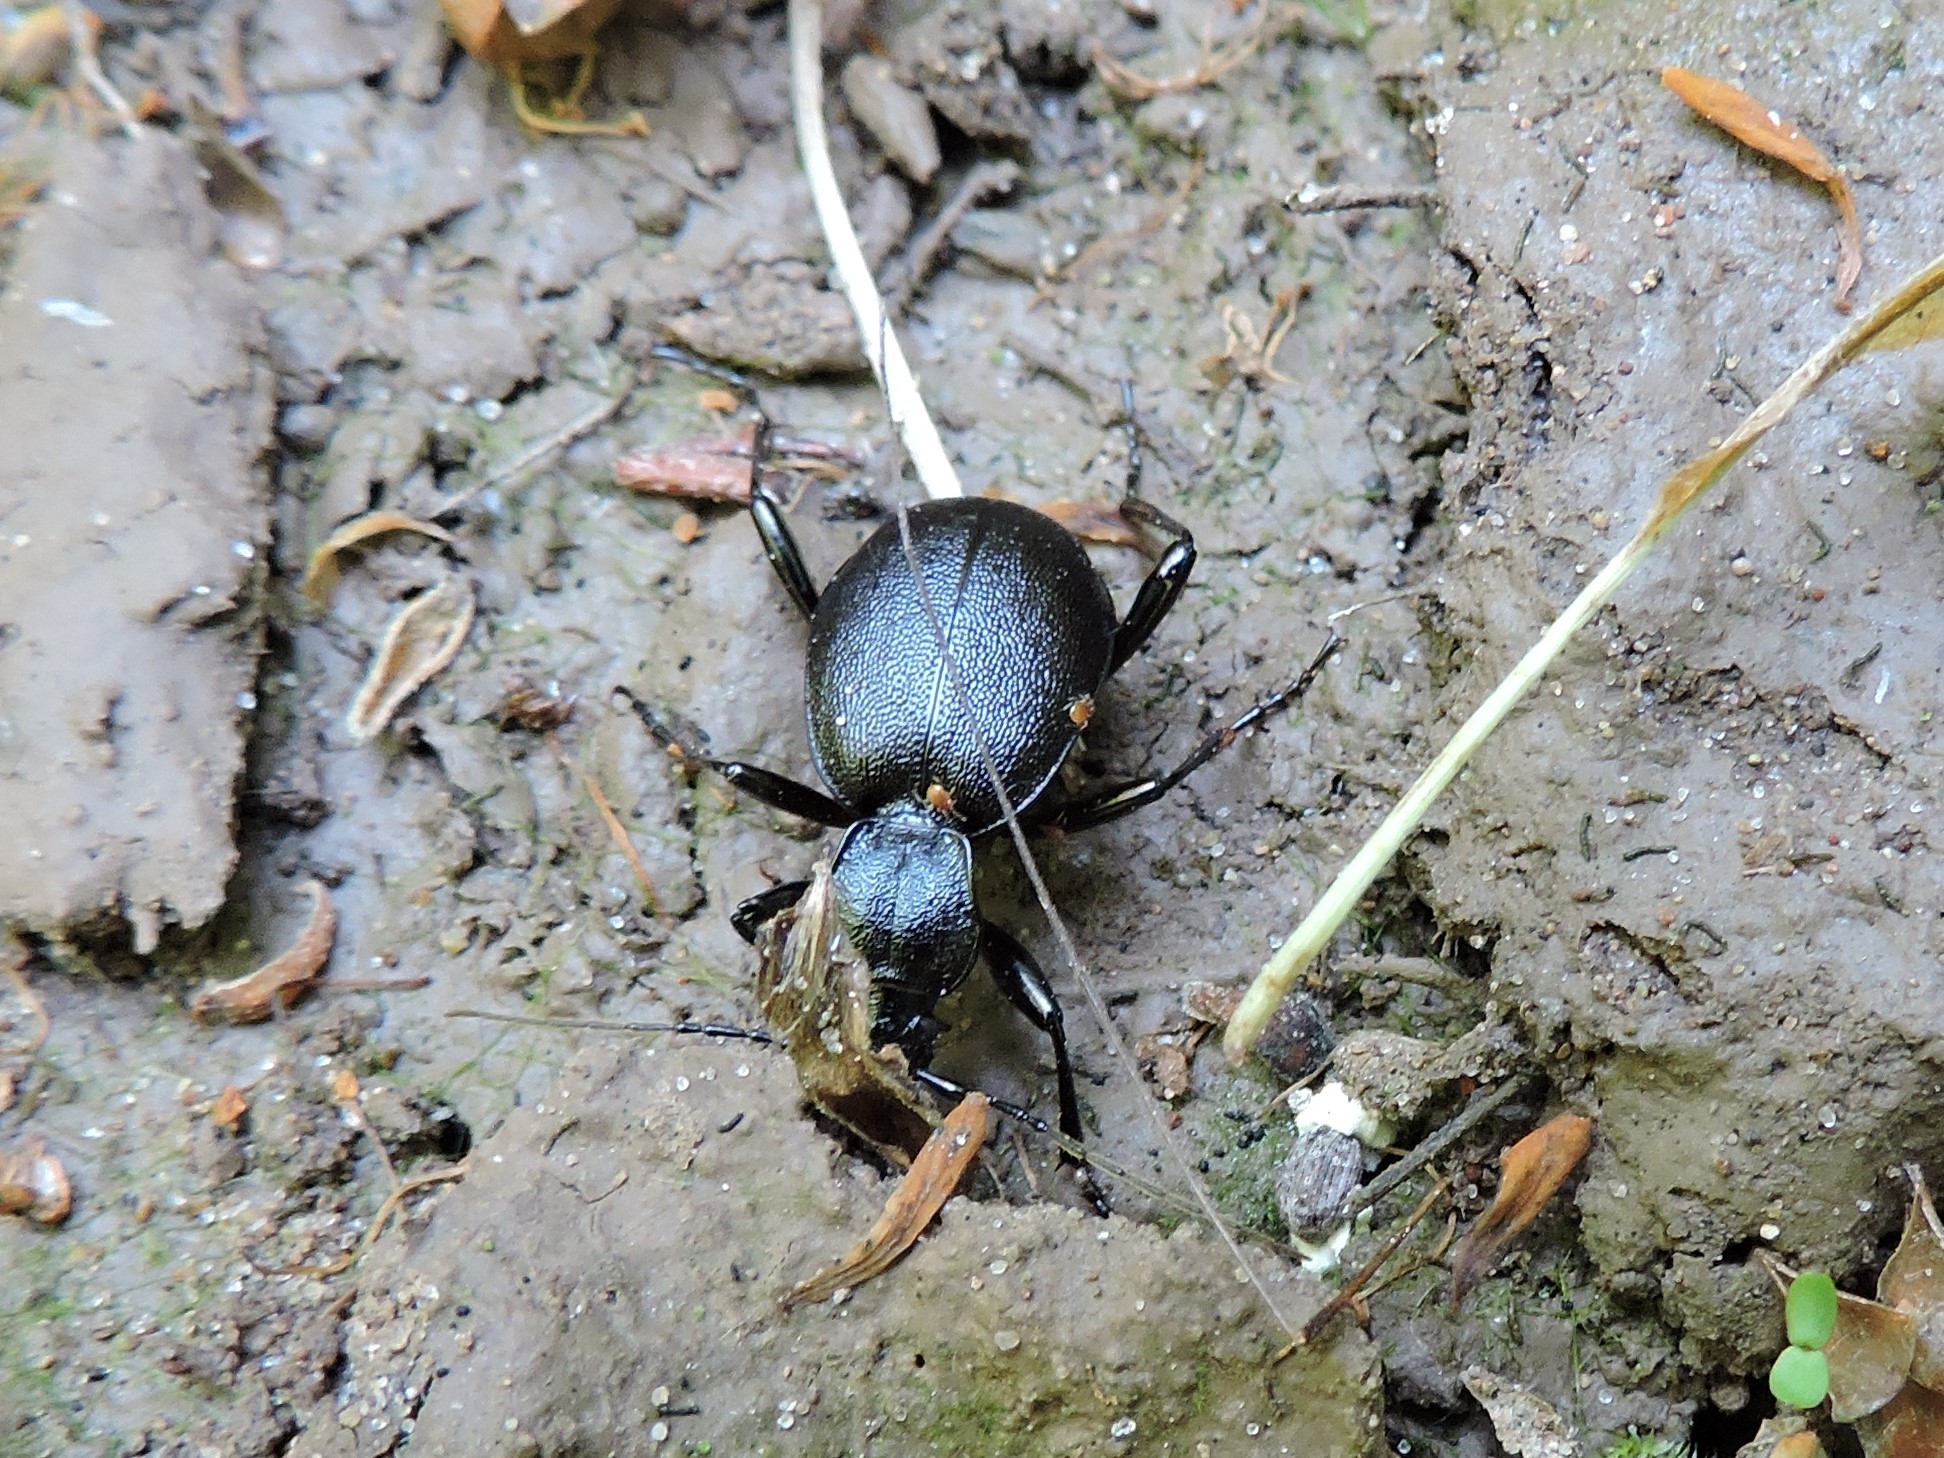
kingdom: Animalia
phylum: Arthropoda
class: Insecta
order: Coleoptera
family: Carabidae
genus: Cychrus
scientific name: Cychrus caraboides
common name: Snail hunter
